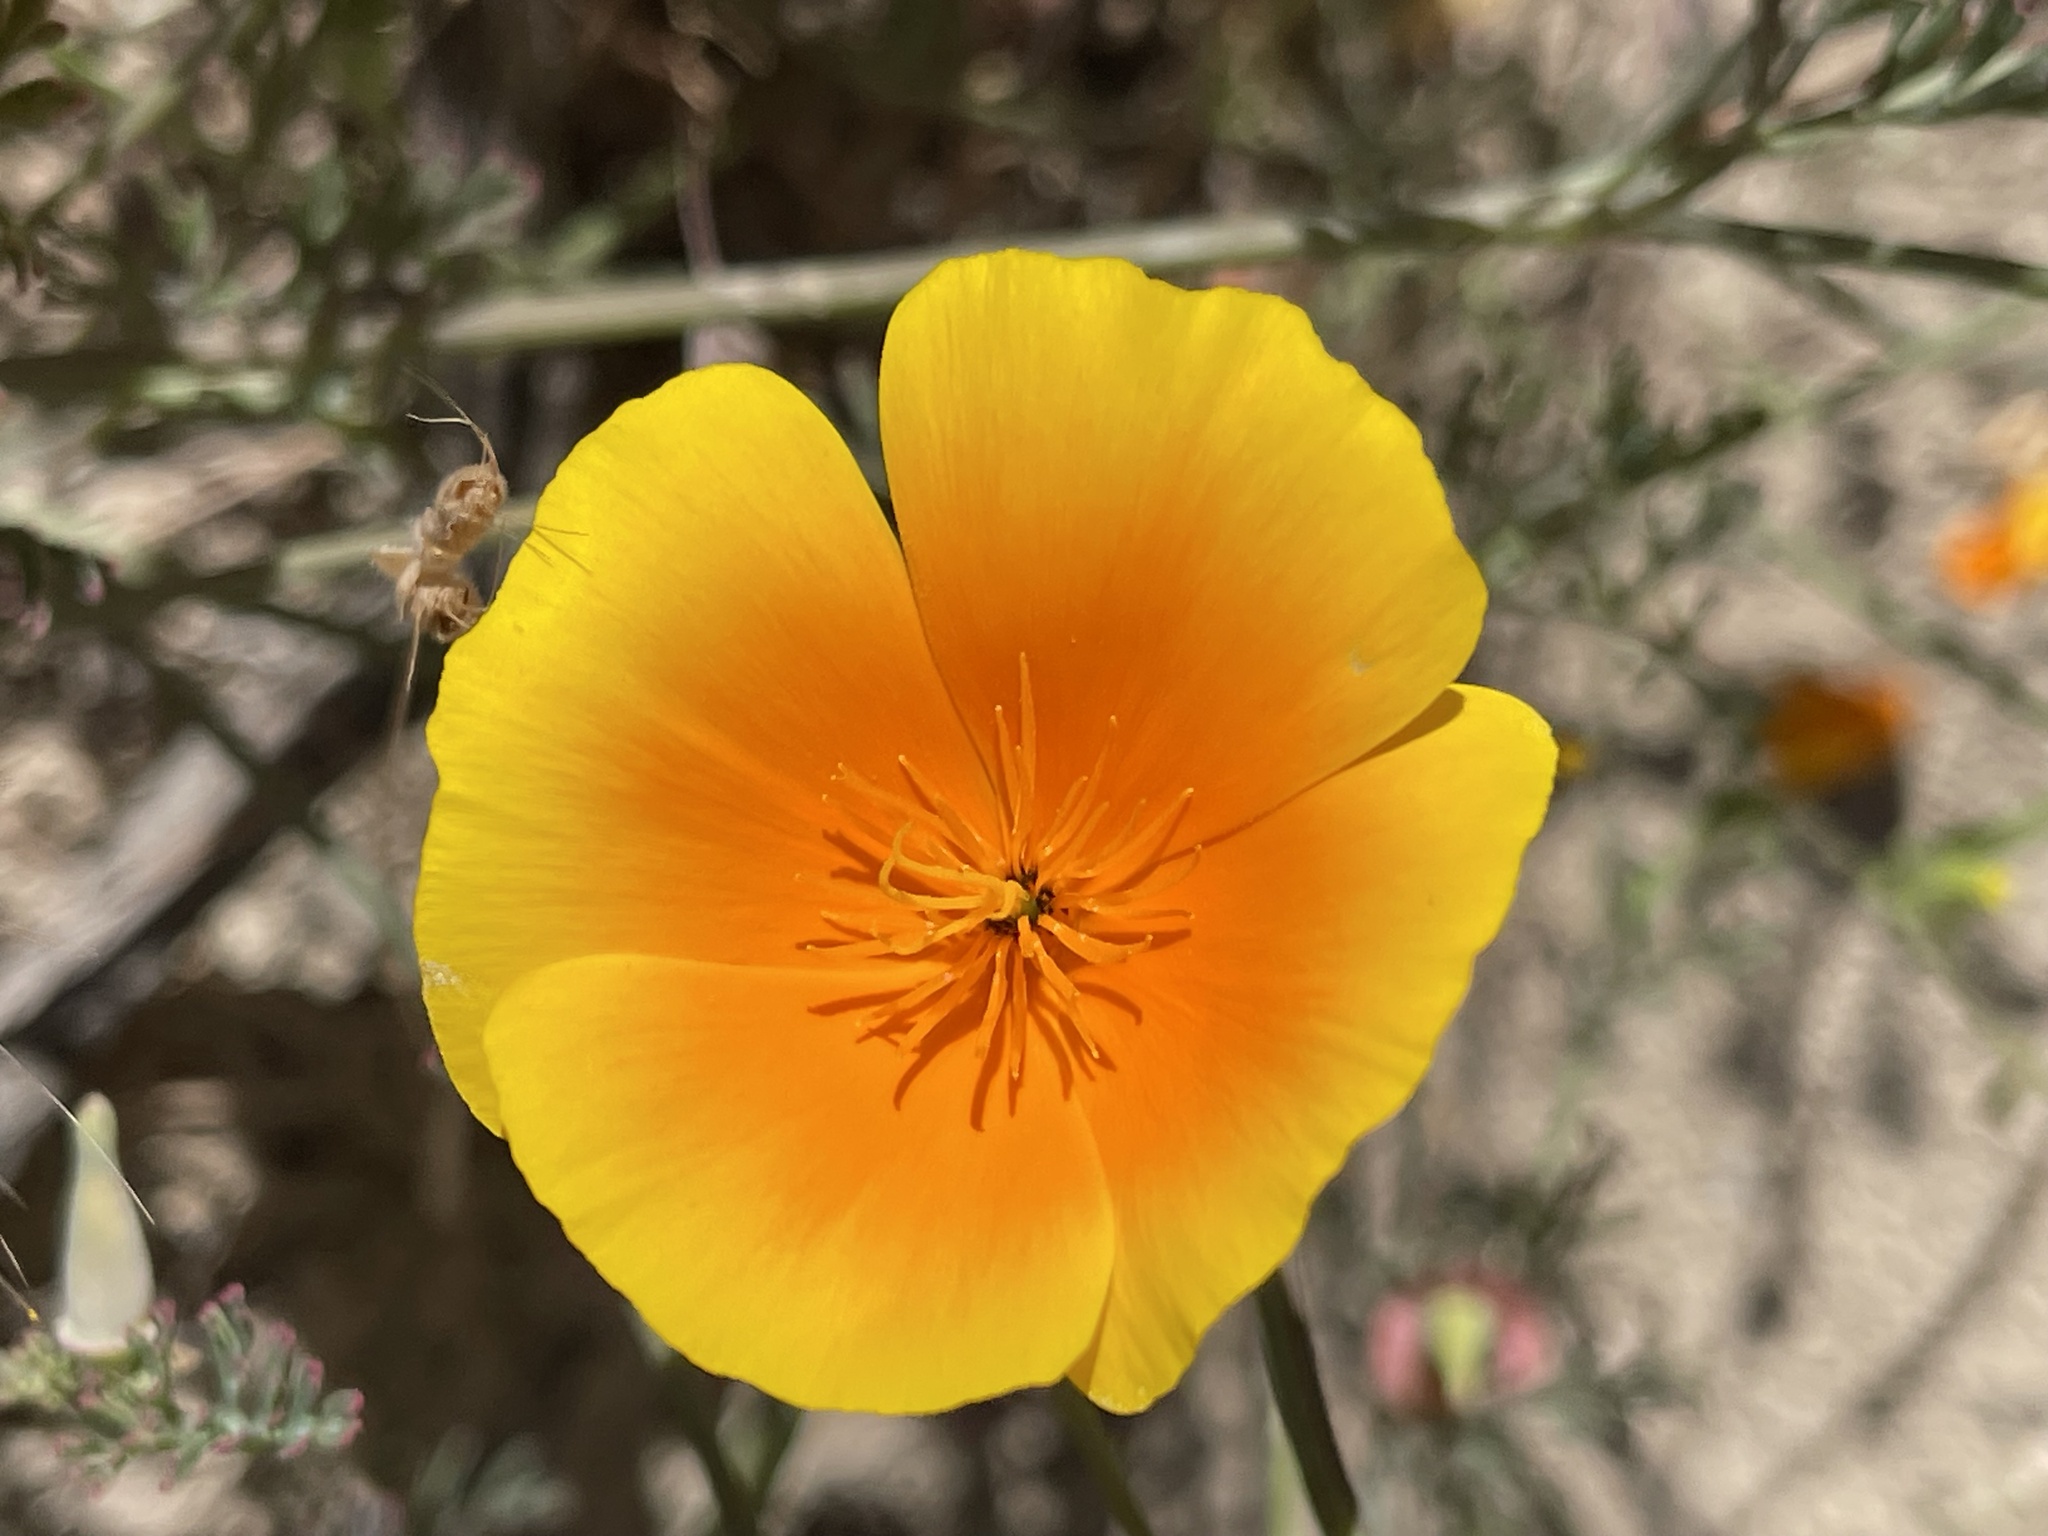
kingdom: Plantae
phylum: Tracheophyta
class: Magnoliopsida
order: Ranunculales
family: Papaveraceae
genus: Eschscholzia
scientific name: Eschscholzia californica
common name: California poppy
